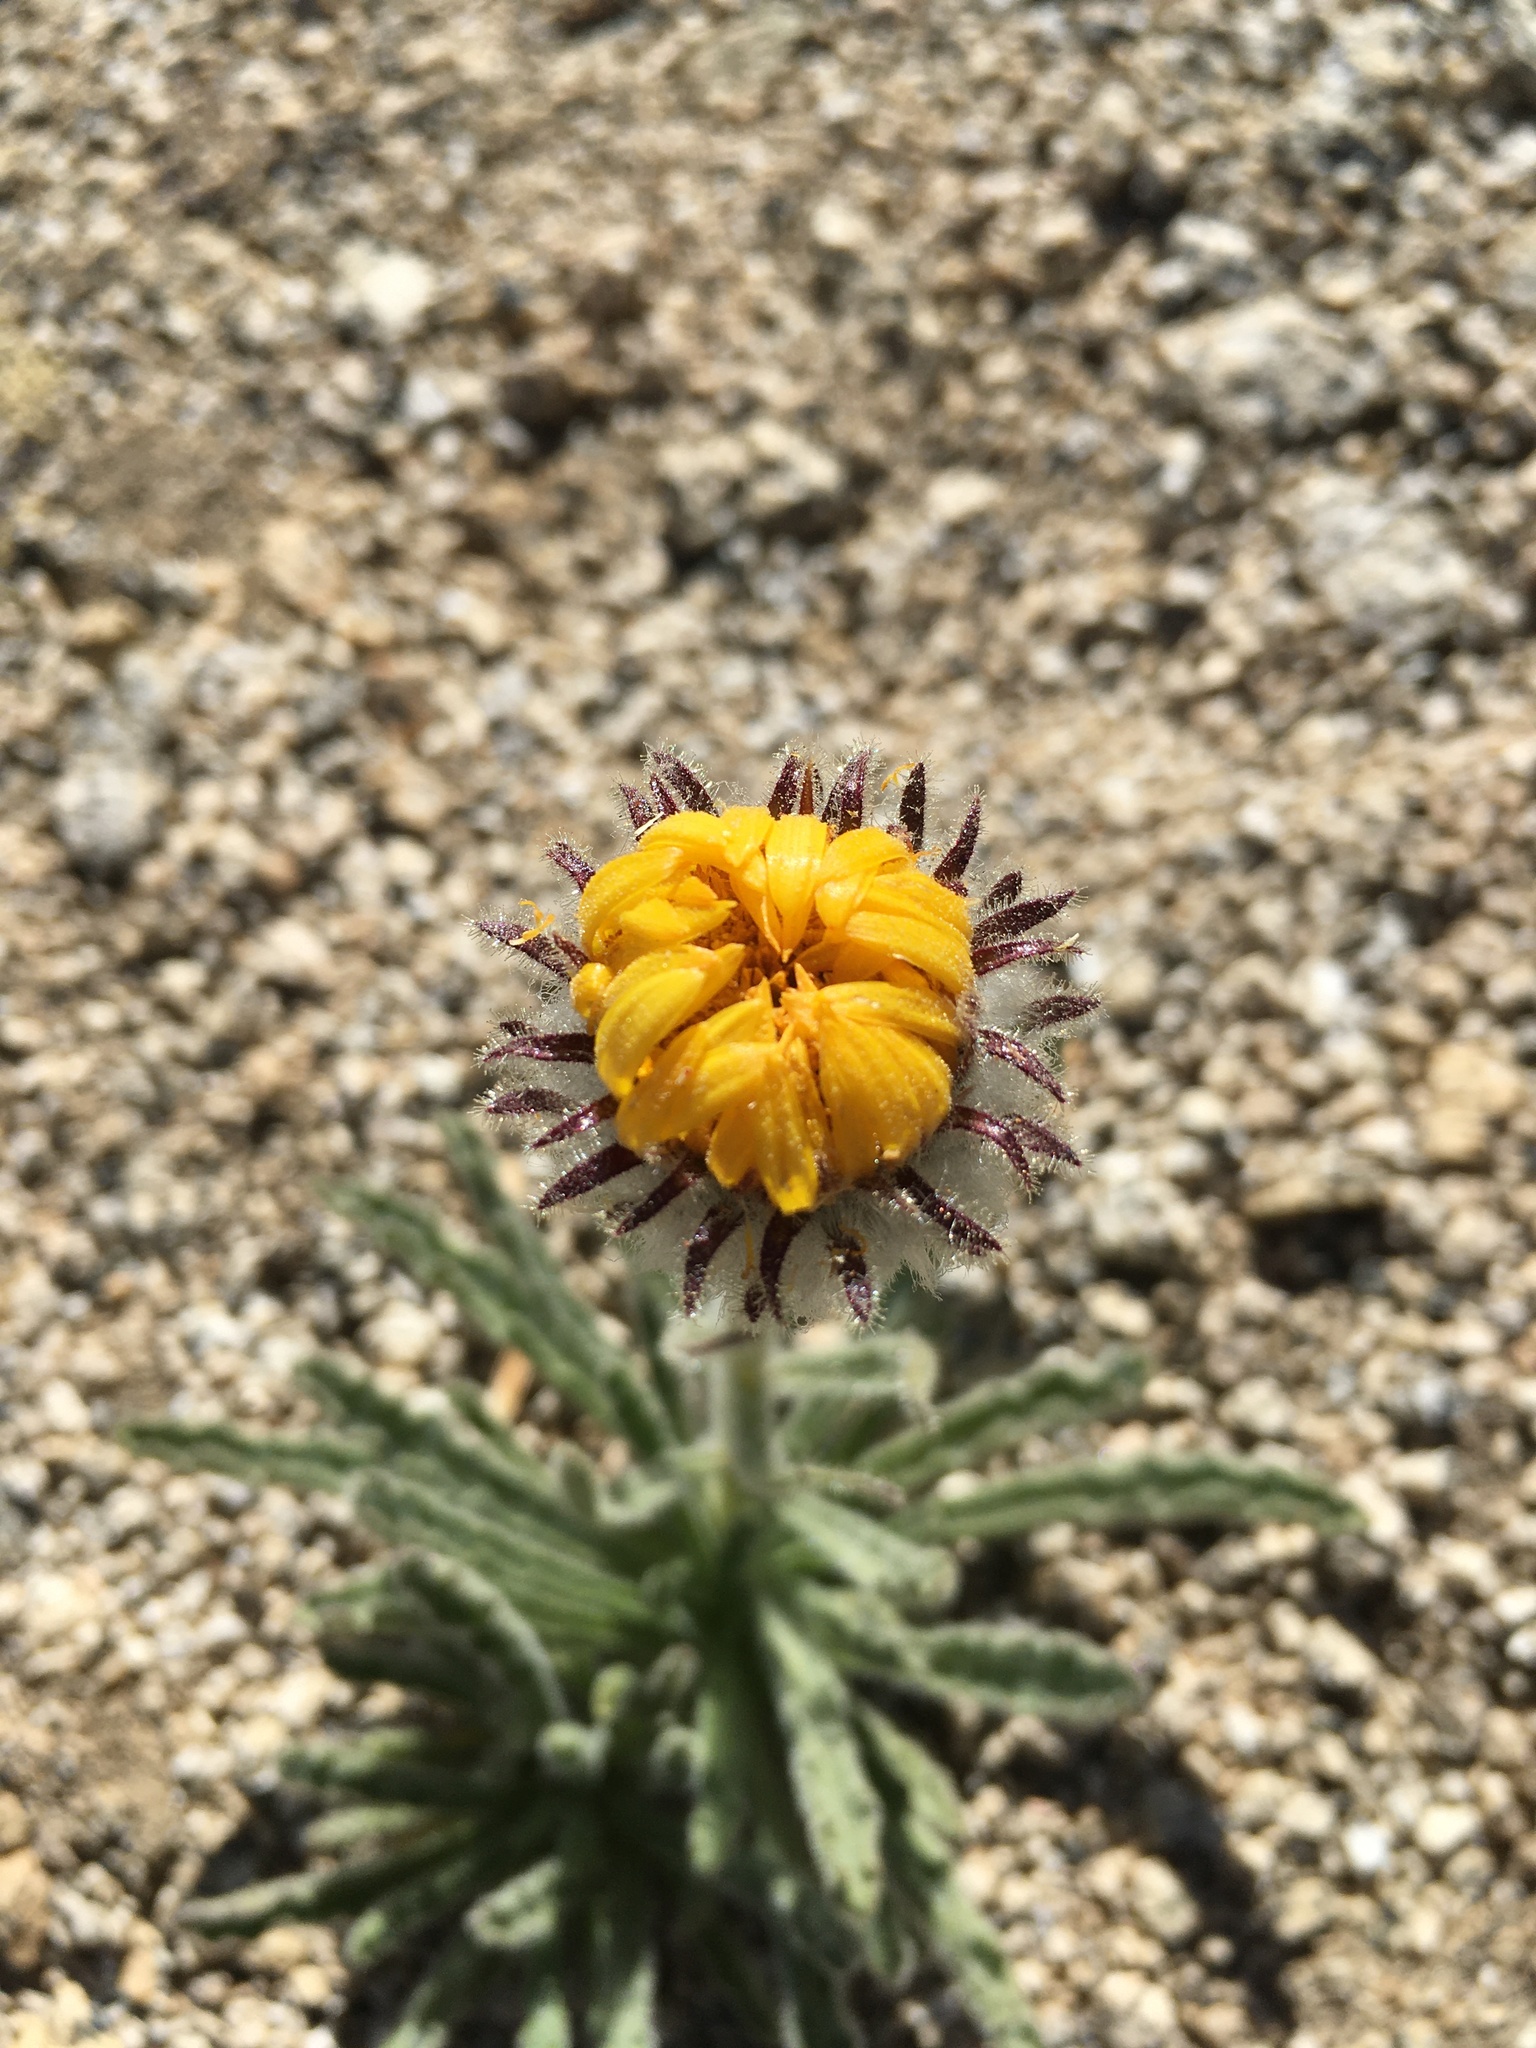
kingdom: Plantae
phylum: Tracheophyta
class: Magnoliopsida
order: Asterales
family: Asteraceae
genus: Hulsea
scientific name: Hulsea algida
